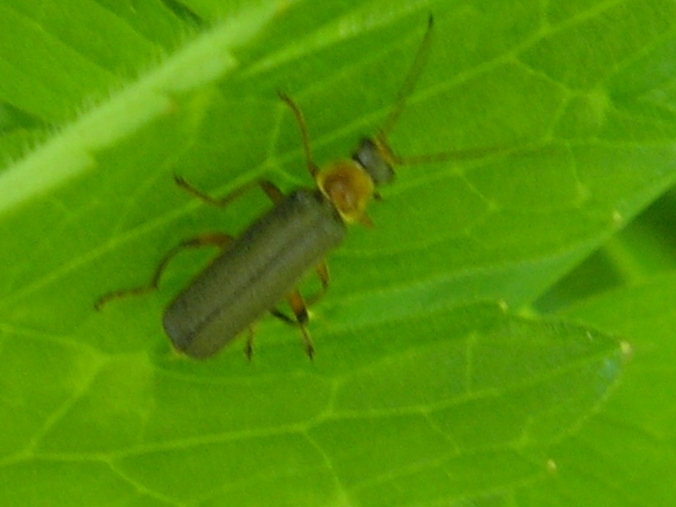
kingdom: Animalia
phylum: Arthropoda
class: Insecta
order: Coleoptera
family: Cantharidae
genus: Cantharis
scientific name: Cantharis nigricans
